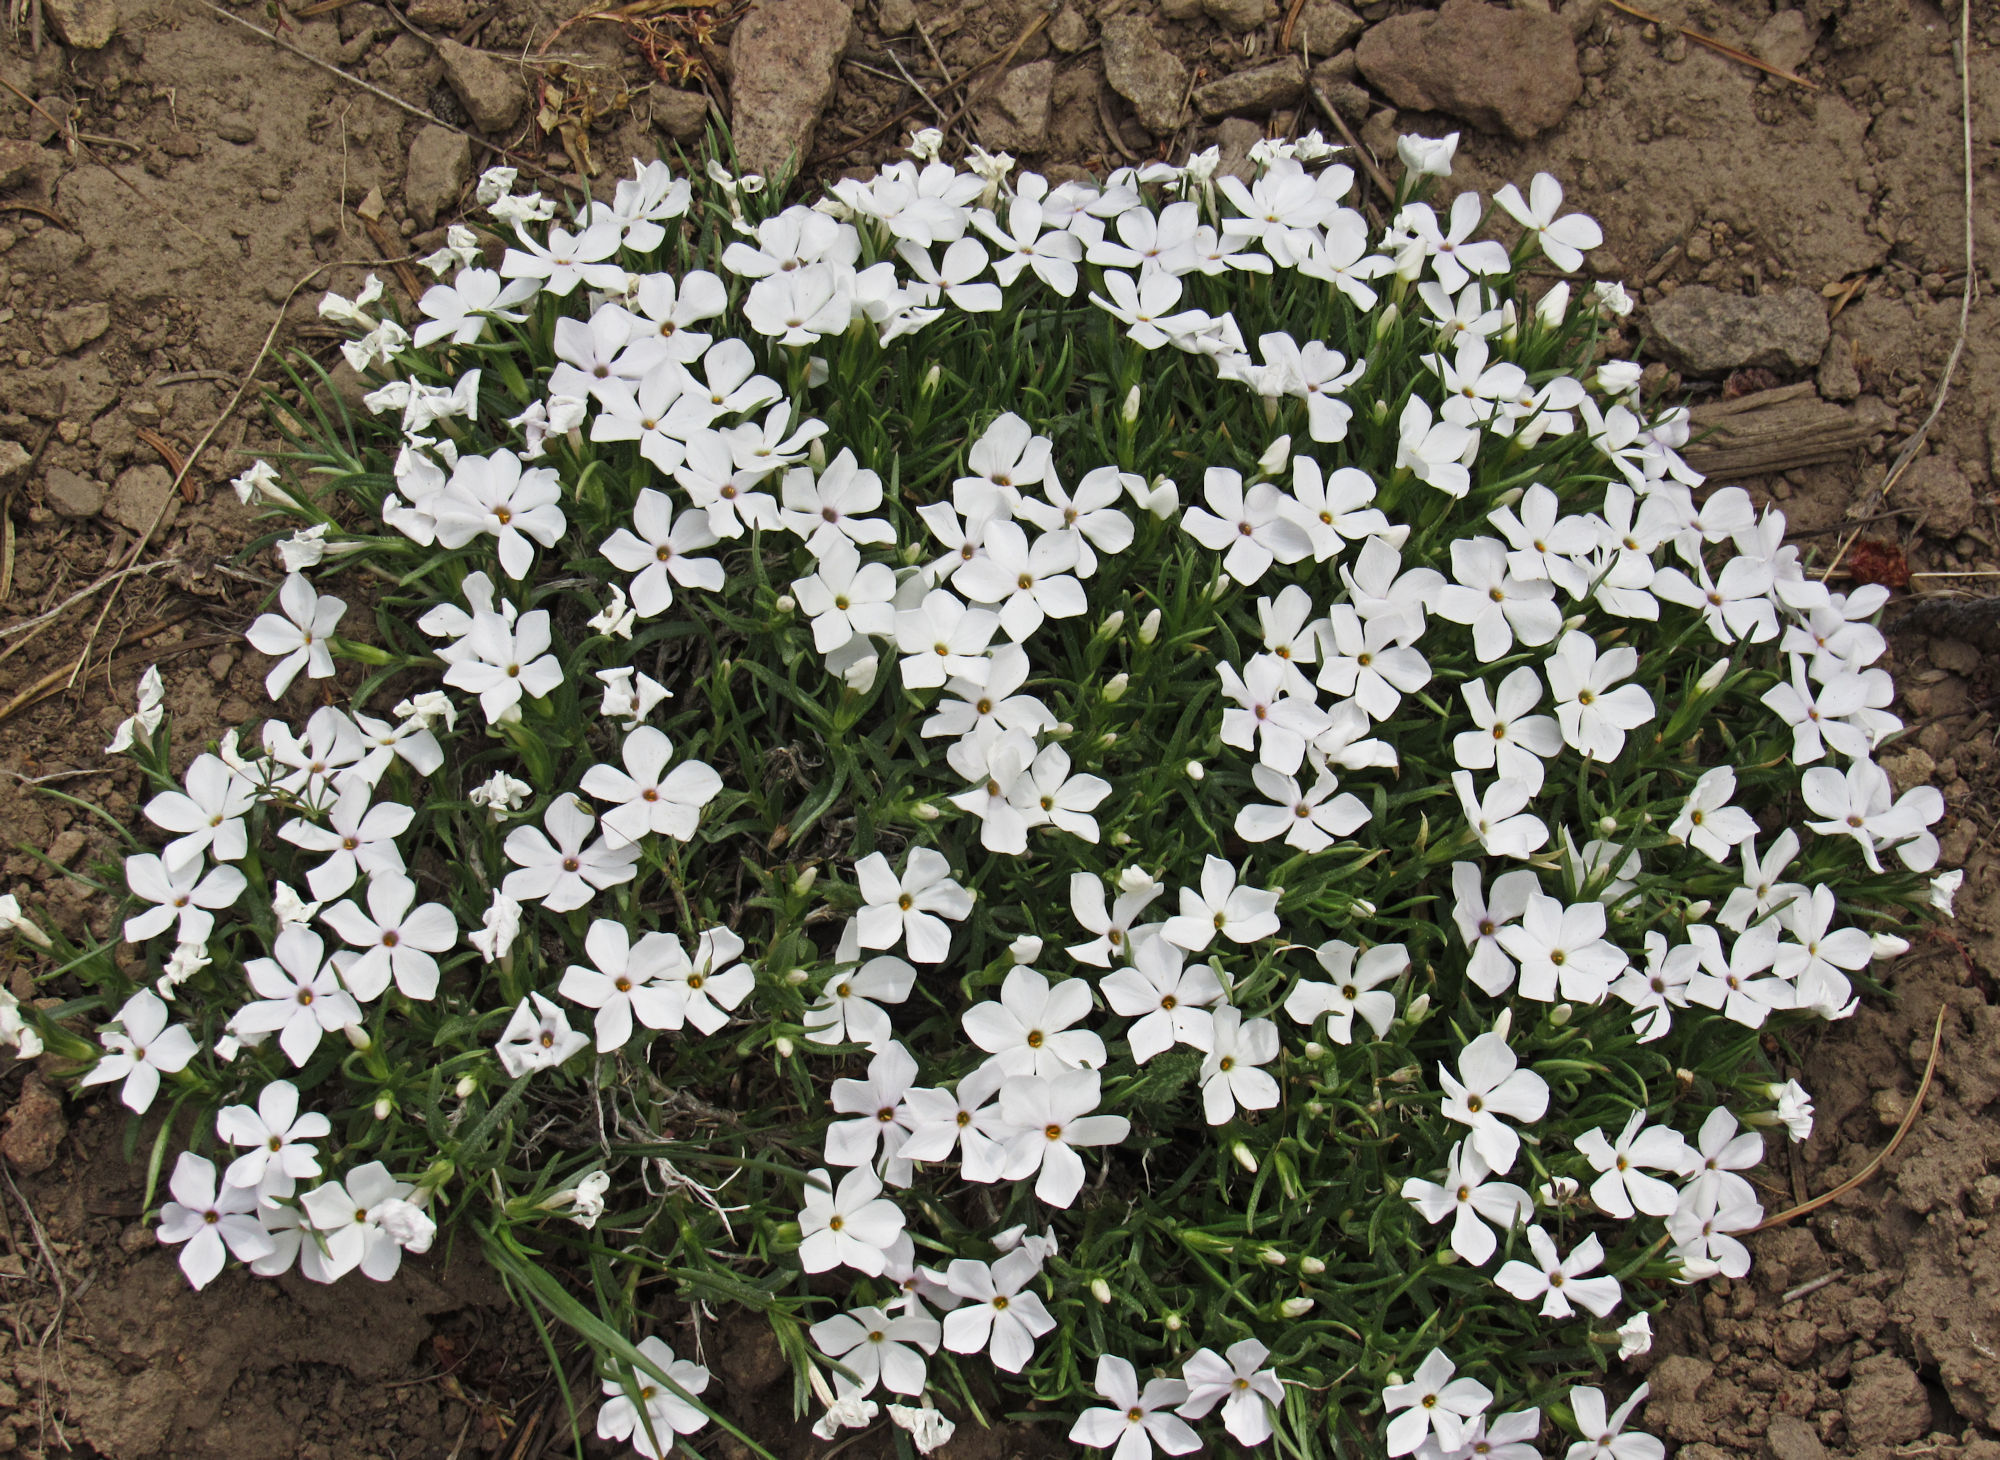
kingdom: Plantae
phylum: Tracheophyta
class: Magnoliopsida
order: Ericales
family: Polemoniaceae
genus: Phlox
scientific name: Phlox multiflora
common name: Rocky mountain phlox
